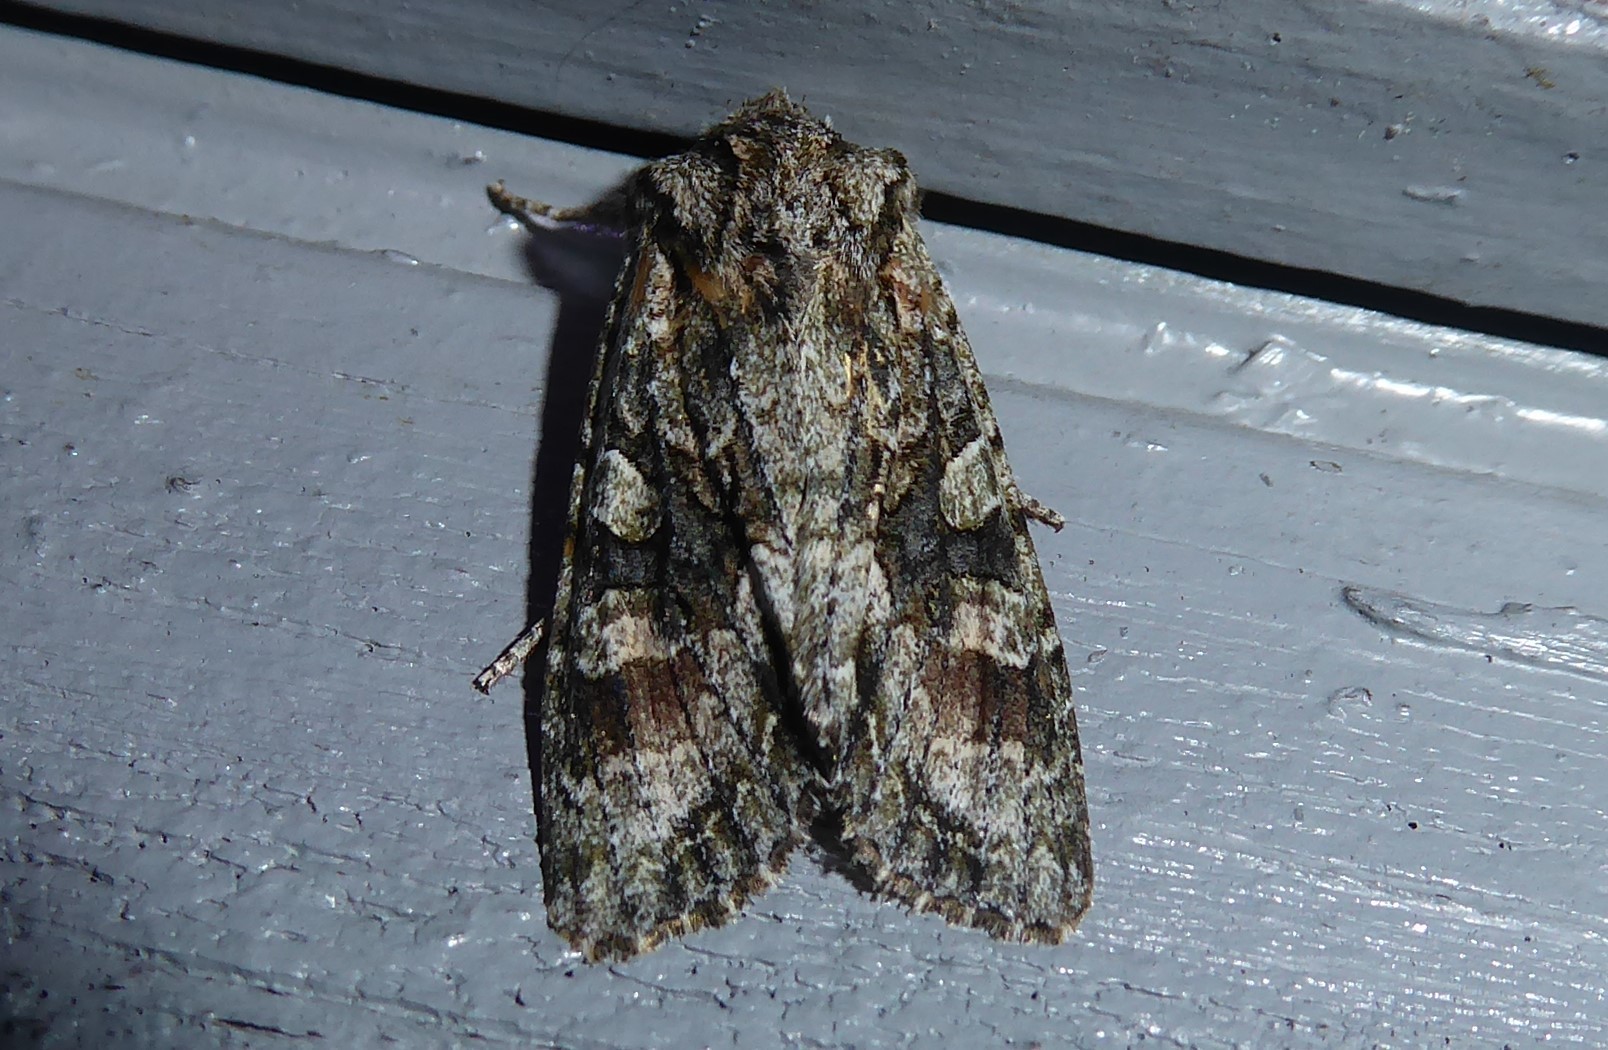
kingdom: Animalia
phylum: Arthropoda
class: Insecta
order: Lepidoptera
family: Noctuidae
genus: Ichneutica
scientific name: Ichneutica mutans
